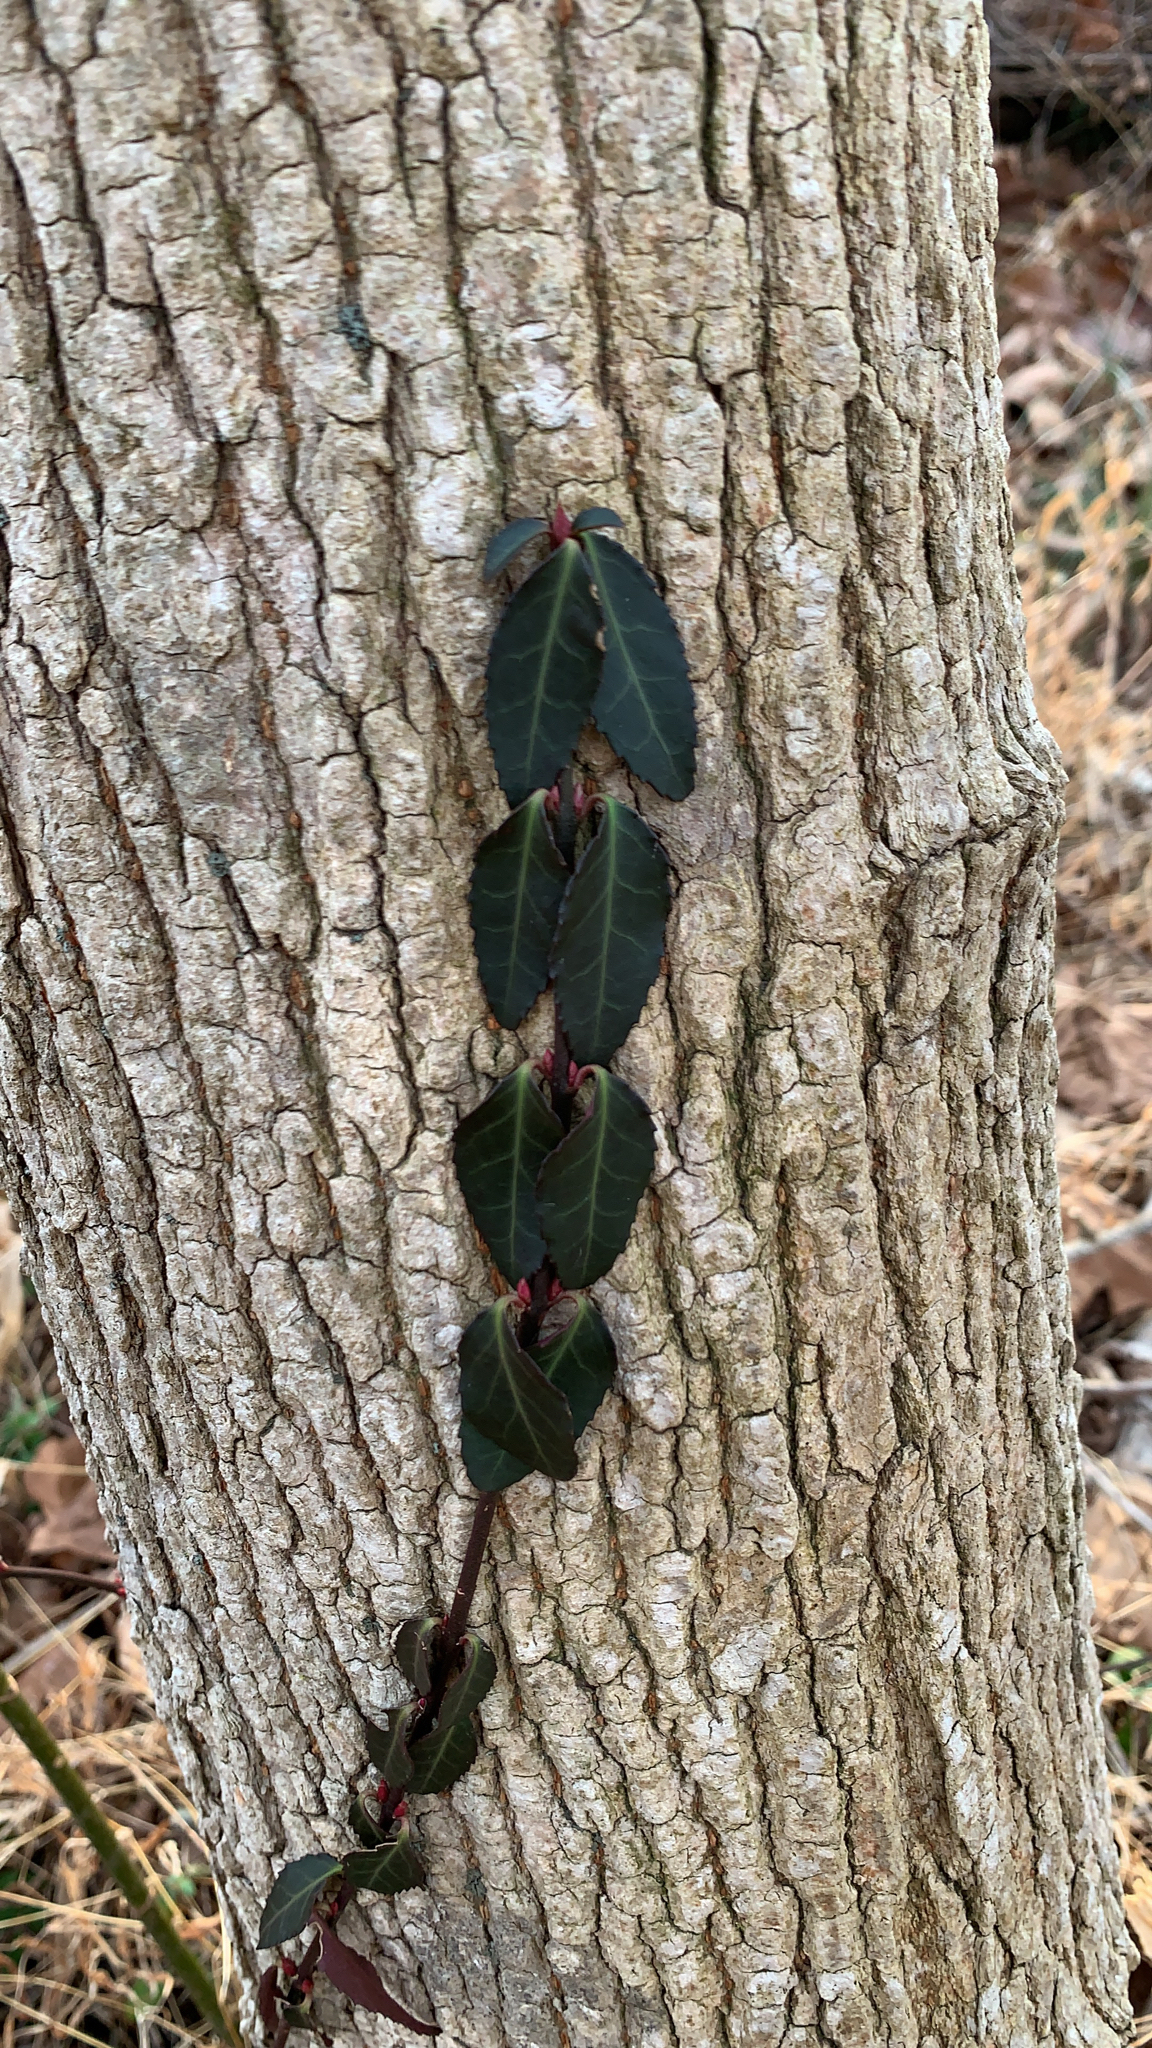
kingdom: Plantae
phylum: Tracheophyta
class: Magnoliopsida
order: Celastrales
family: Celastraceae
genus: Euonymus
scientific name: Euonymus fortunei
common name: Climbing euonymus
